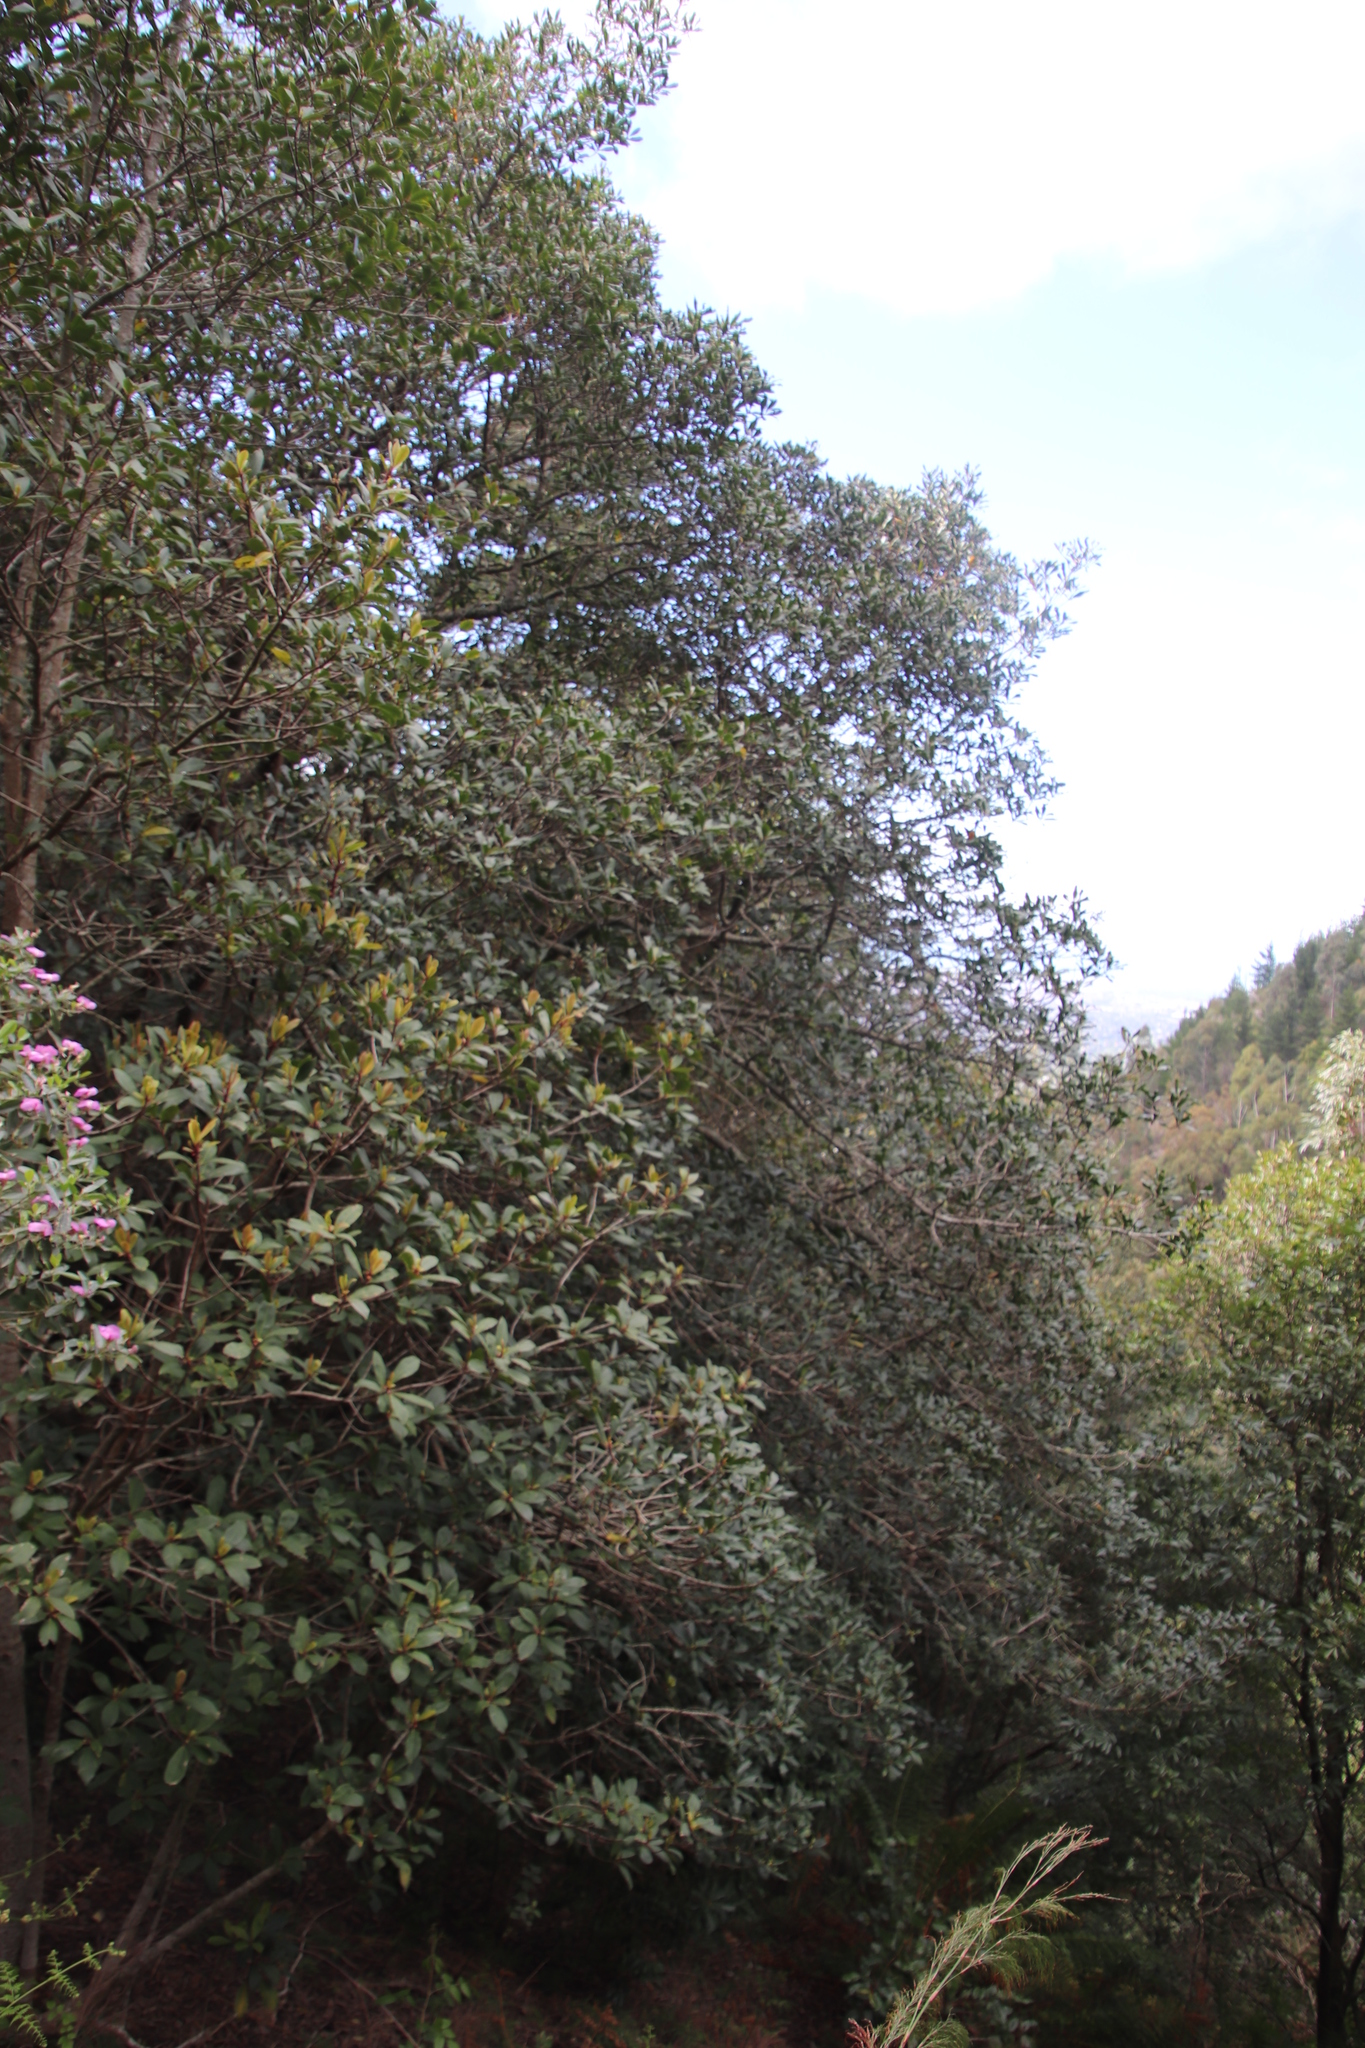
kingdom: Plantae
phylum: Tracheophyta
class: Magnoliopsida
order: Ericales
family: Primulaceae
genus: Myrsine
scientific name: Myrsine melanophloeos
